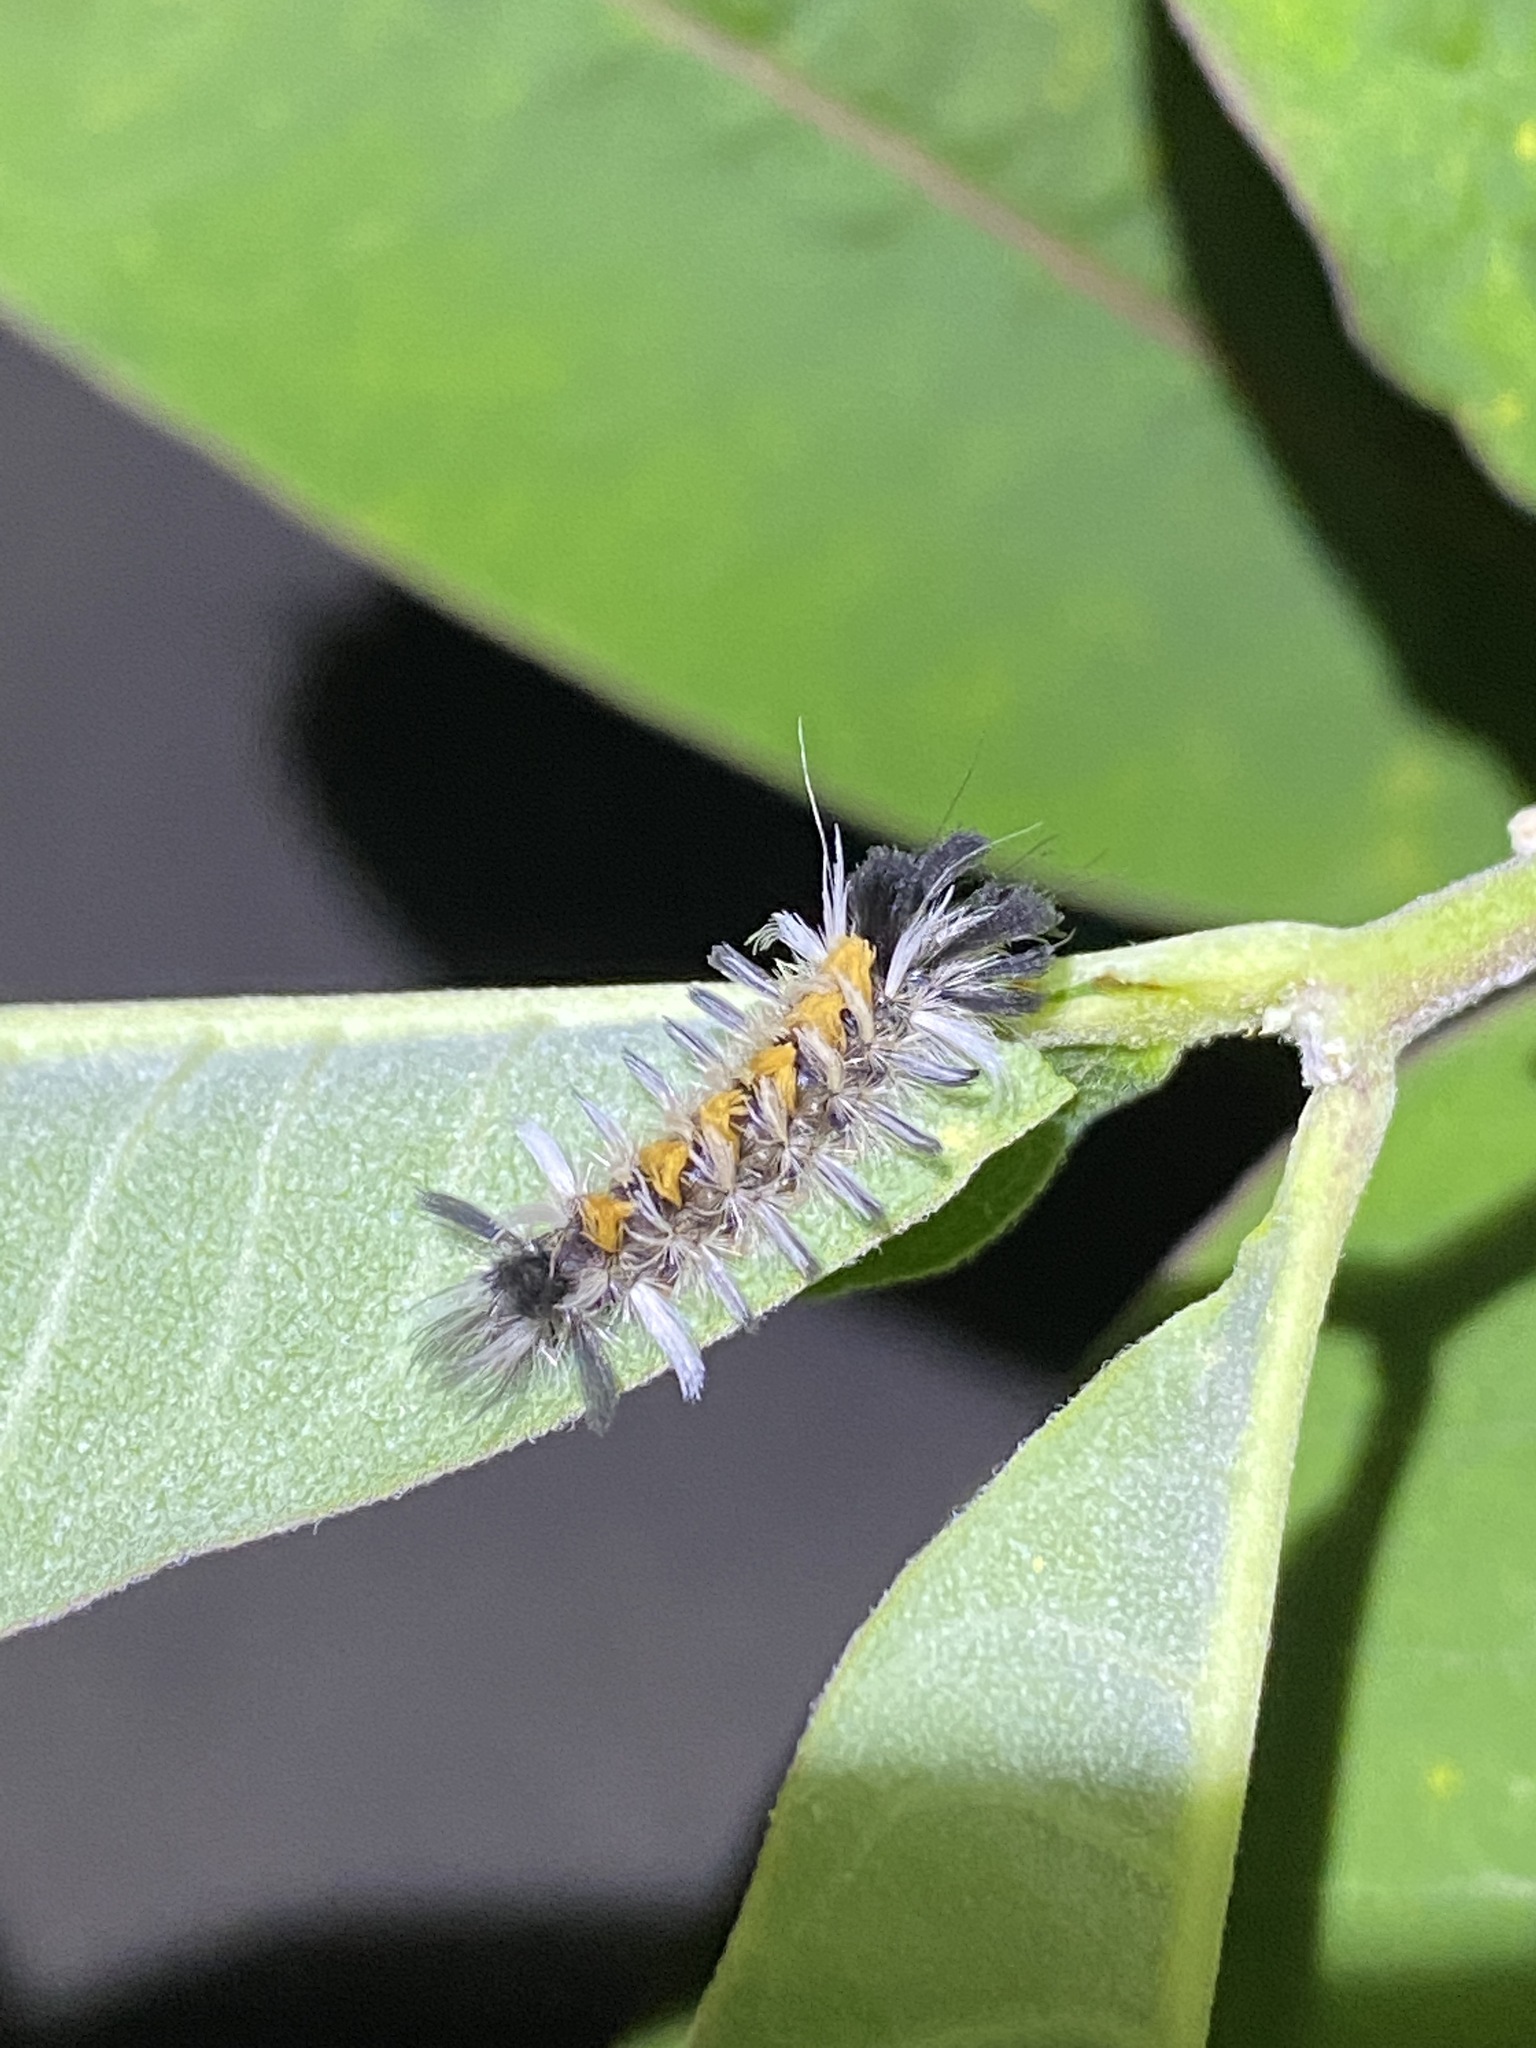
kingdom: Animalia
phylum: Arthropoda
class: Insecta
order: Lepidoptera
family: Erebidae
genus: Euchaetes
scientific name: Euchaetes egle
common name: Milkweed tussock moth
